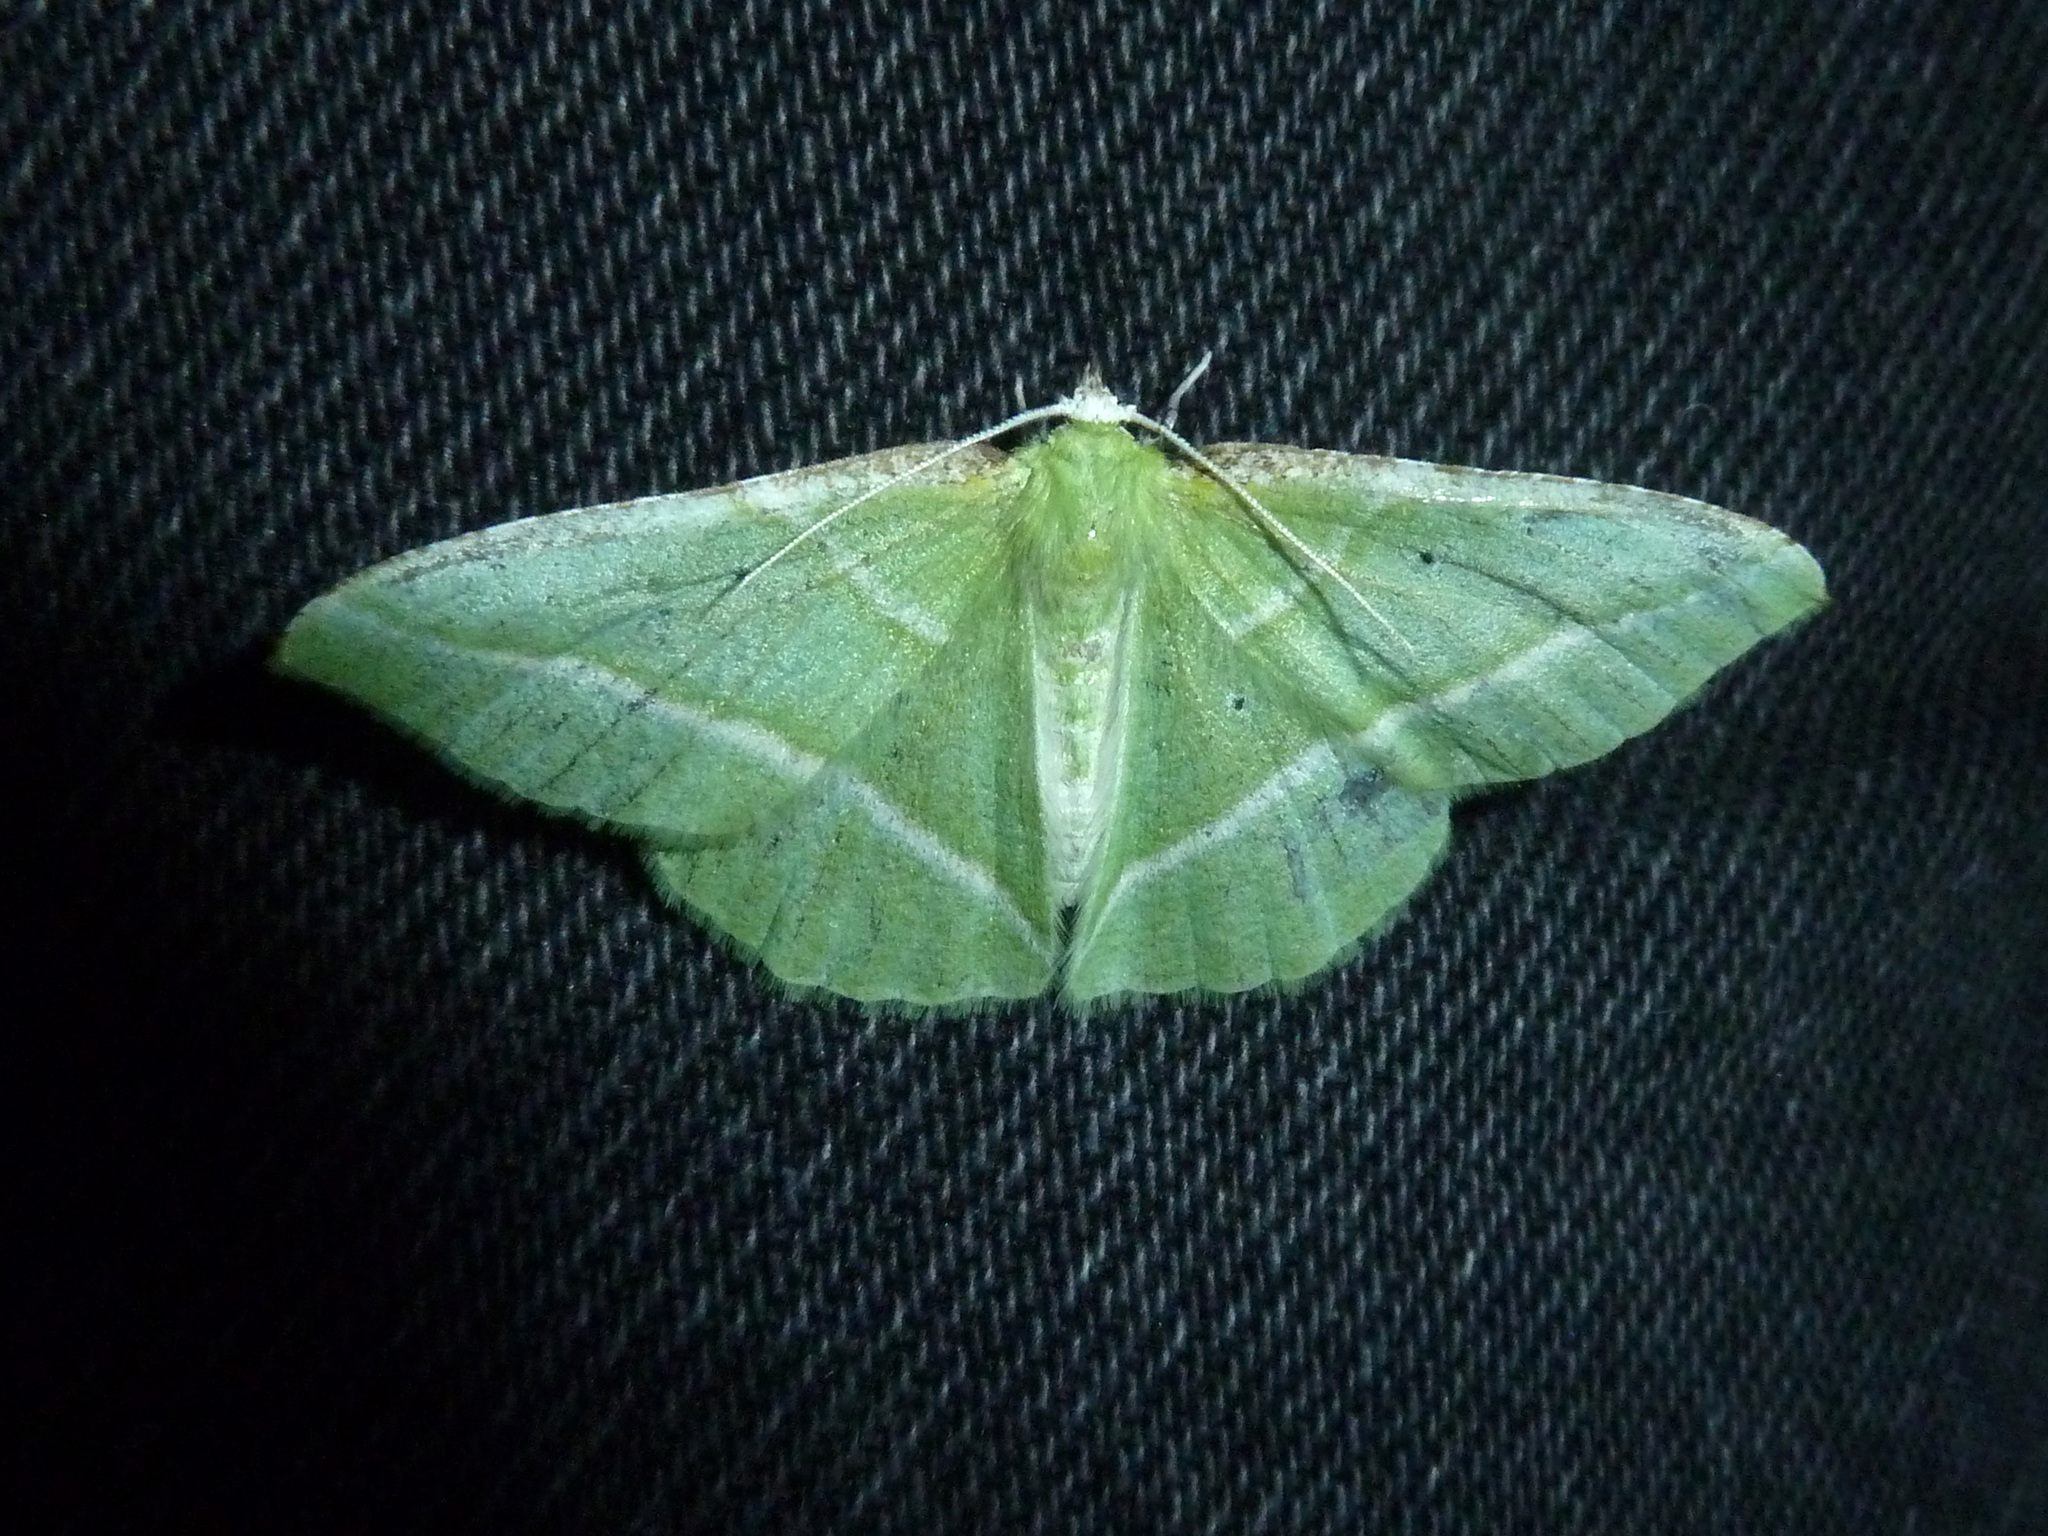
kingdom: Animalia
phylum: Arthropoda
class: Insecta
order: Lepidoptera
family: Geometridae
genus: Dichorda
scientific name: Dichorda illustraria
